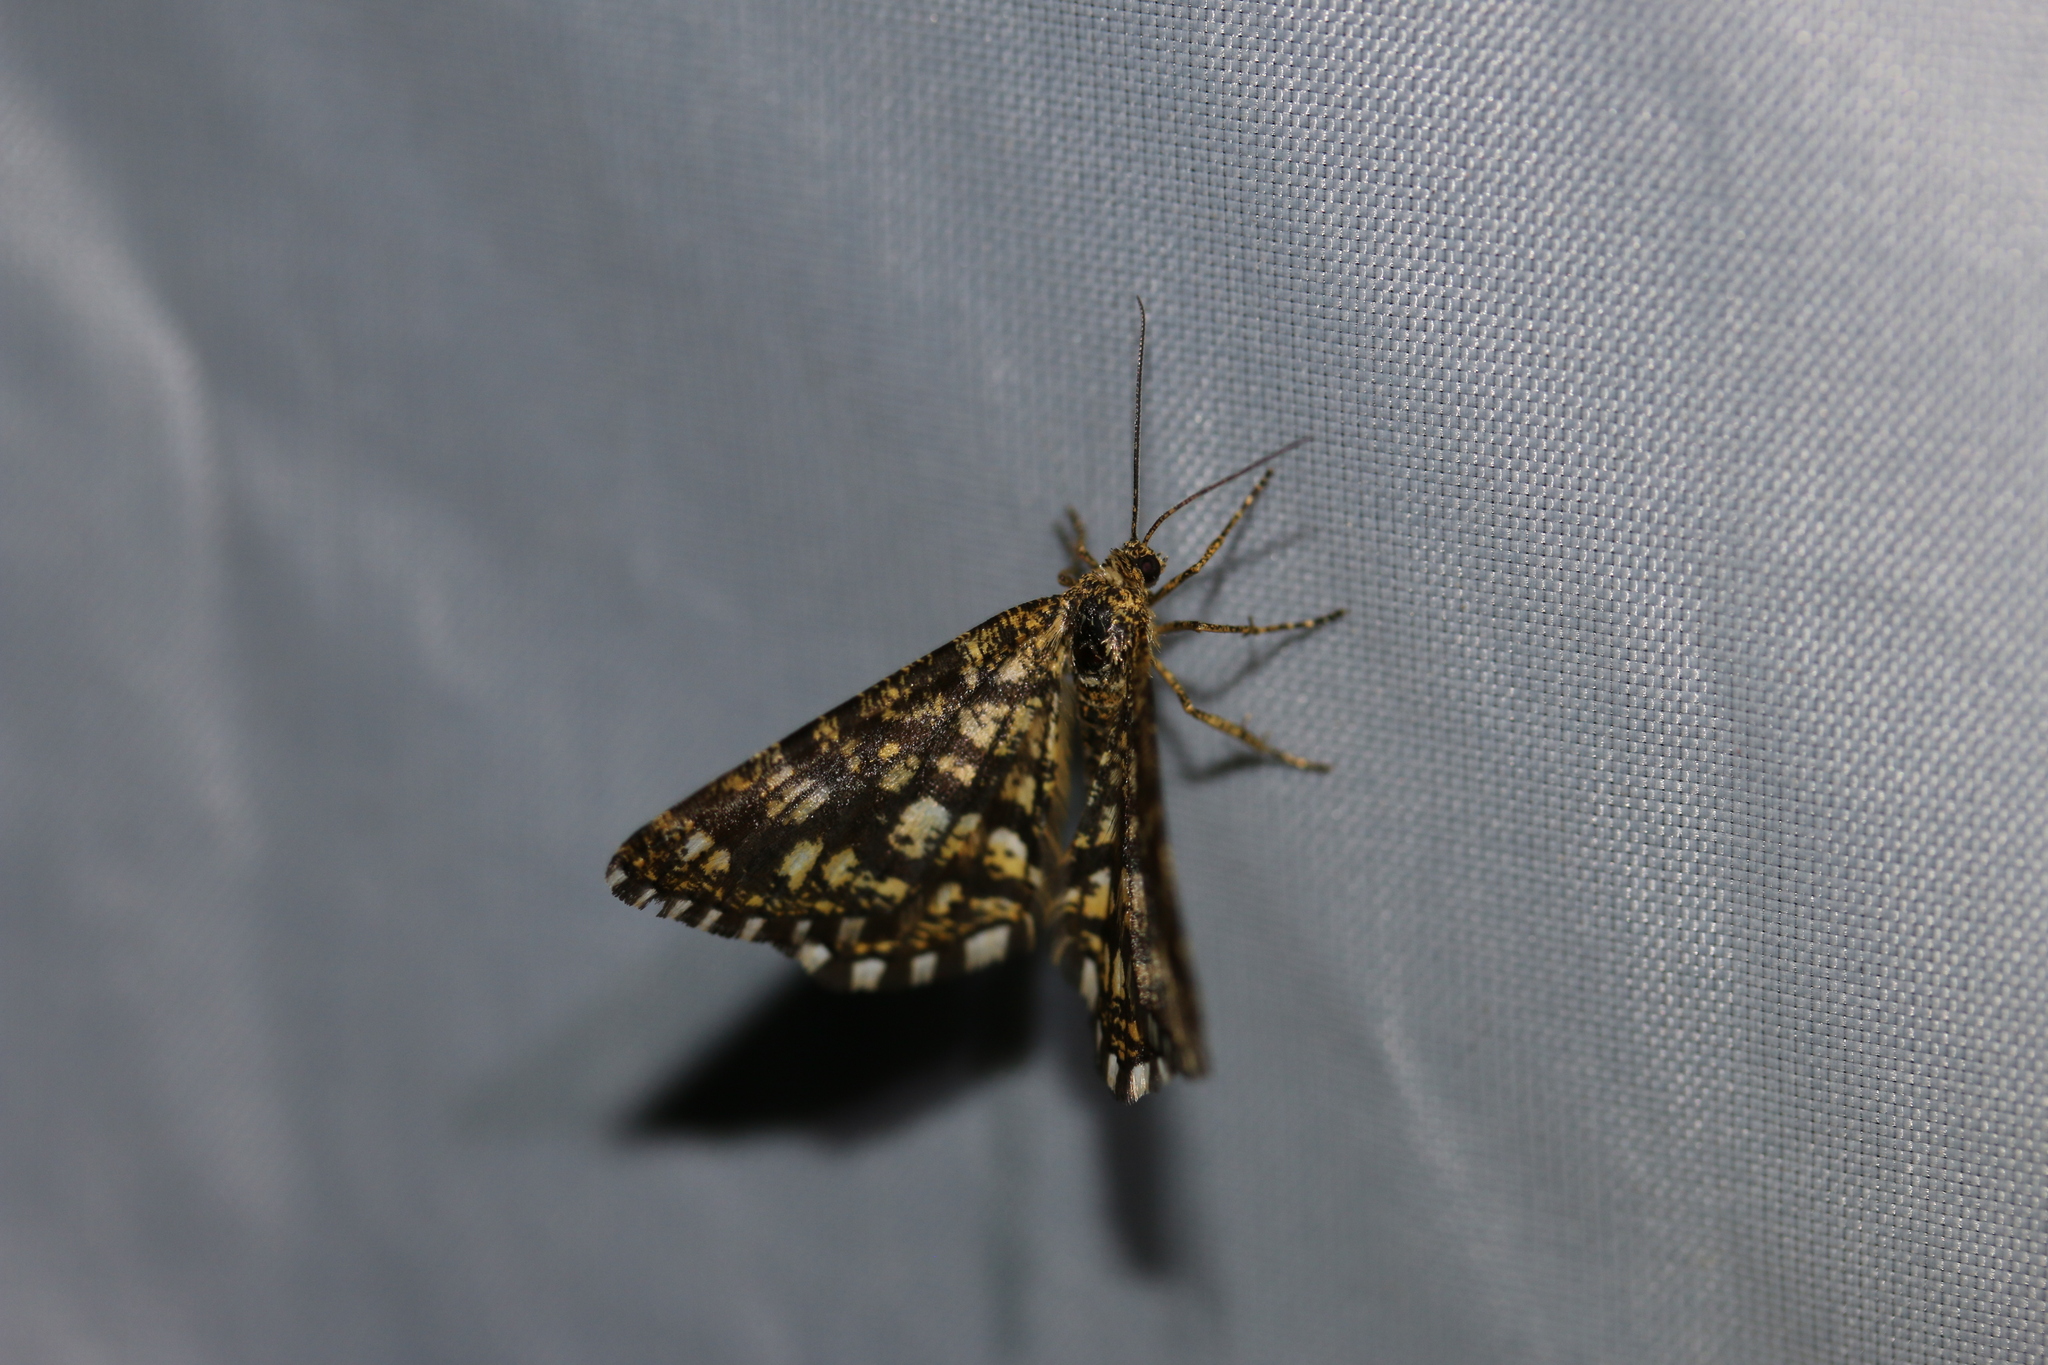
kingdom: Animalia
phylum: Arthropoda
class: Insecta
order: Lepidoptera
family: Geometridae
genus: Chiasmia
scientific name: Chiasmia clathrata
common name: Latticed heath
